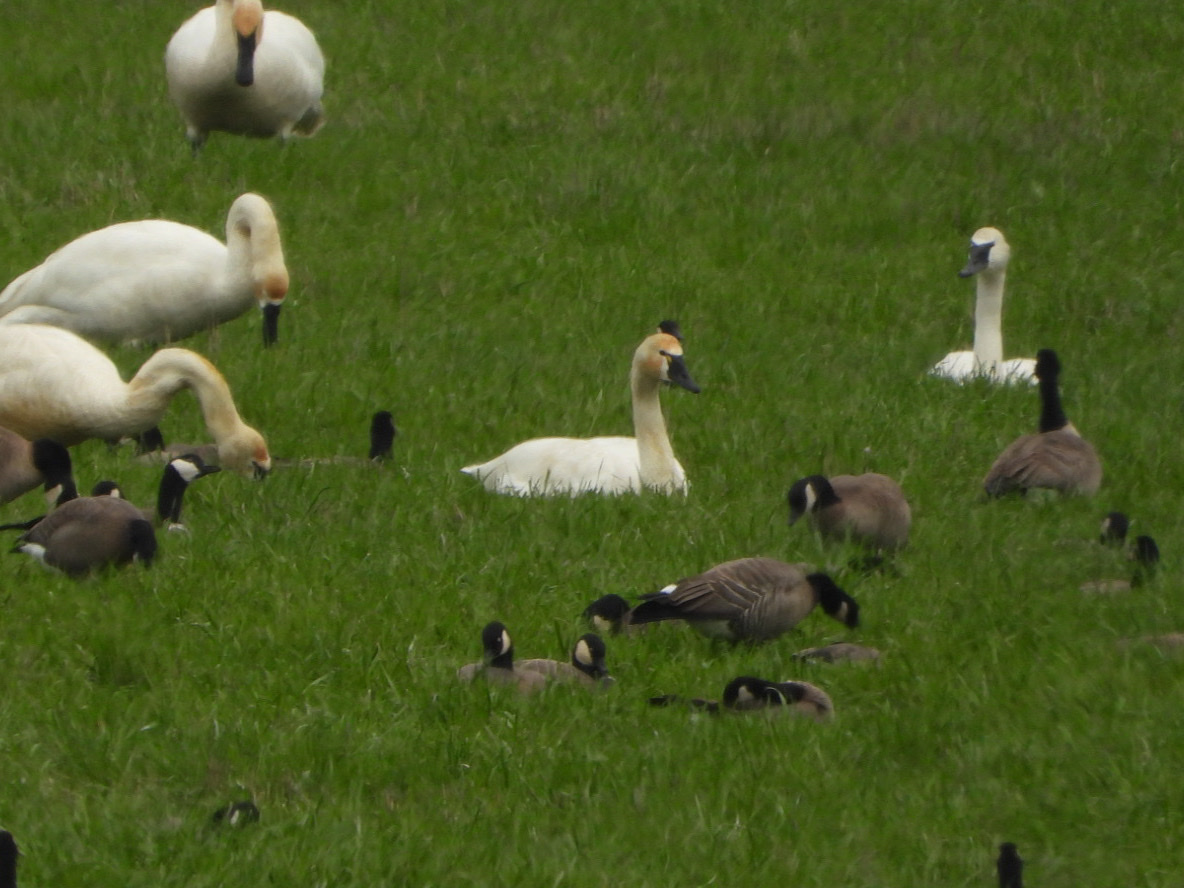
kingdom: Animalia
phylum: Chordata
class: Aves
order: Anseriformes
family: Anatidae
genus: Cygnus
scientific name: Cygnus columbianus
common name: Tundra swan
